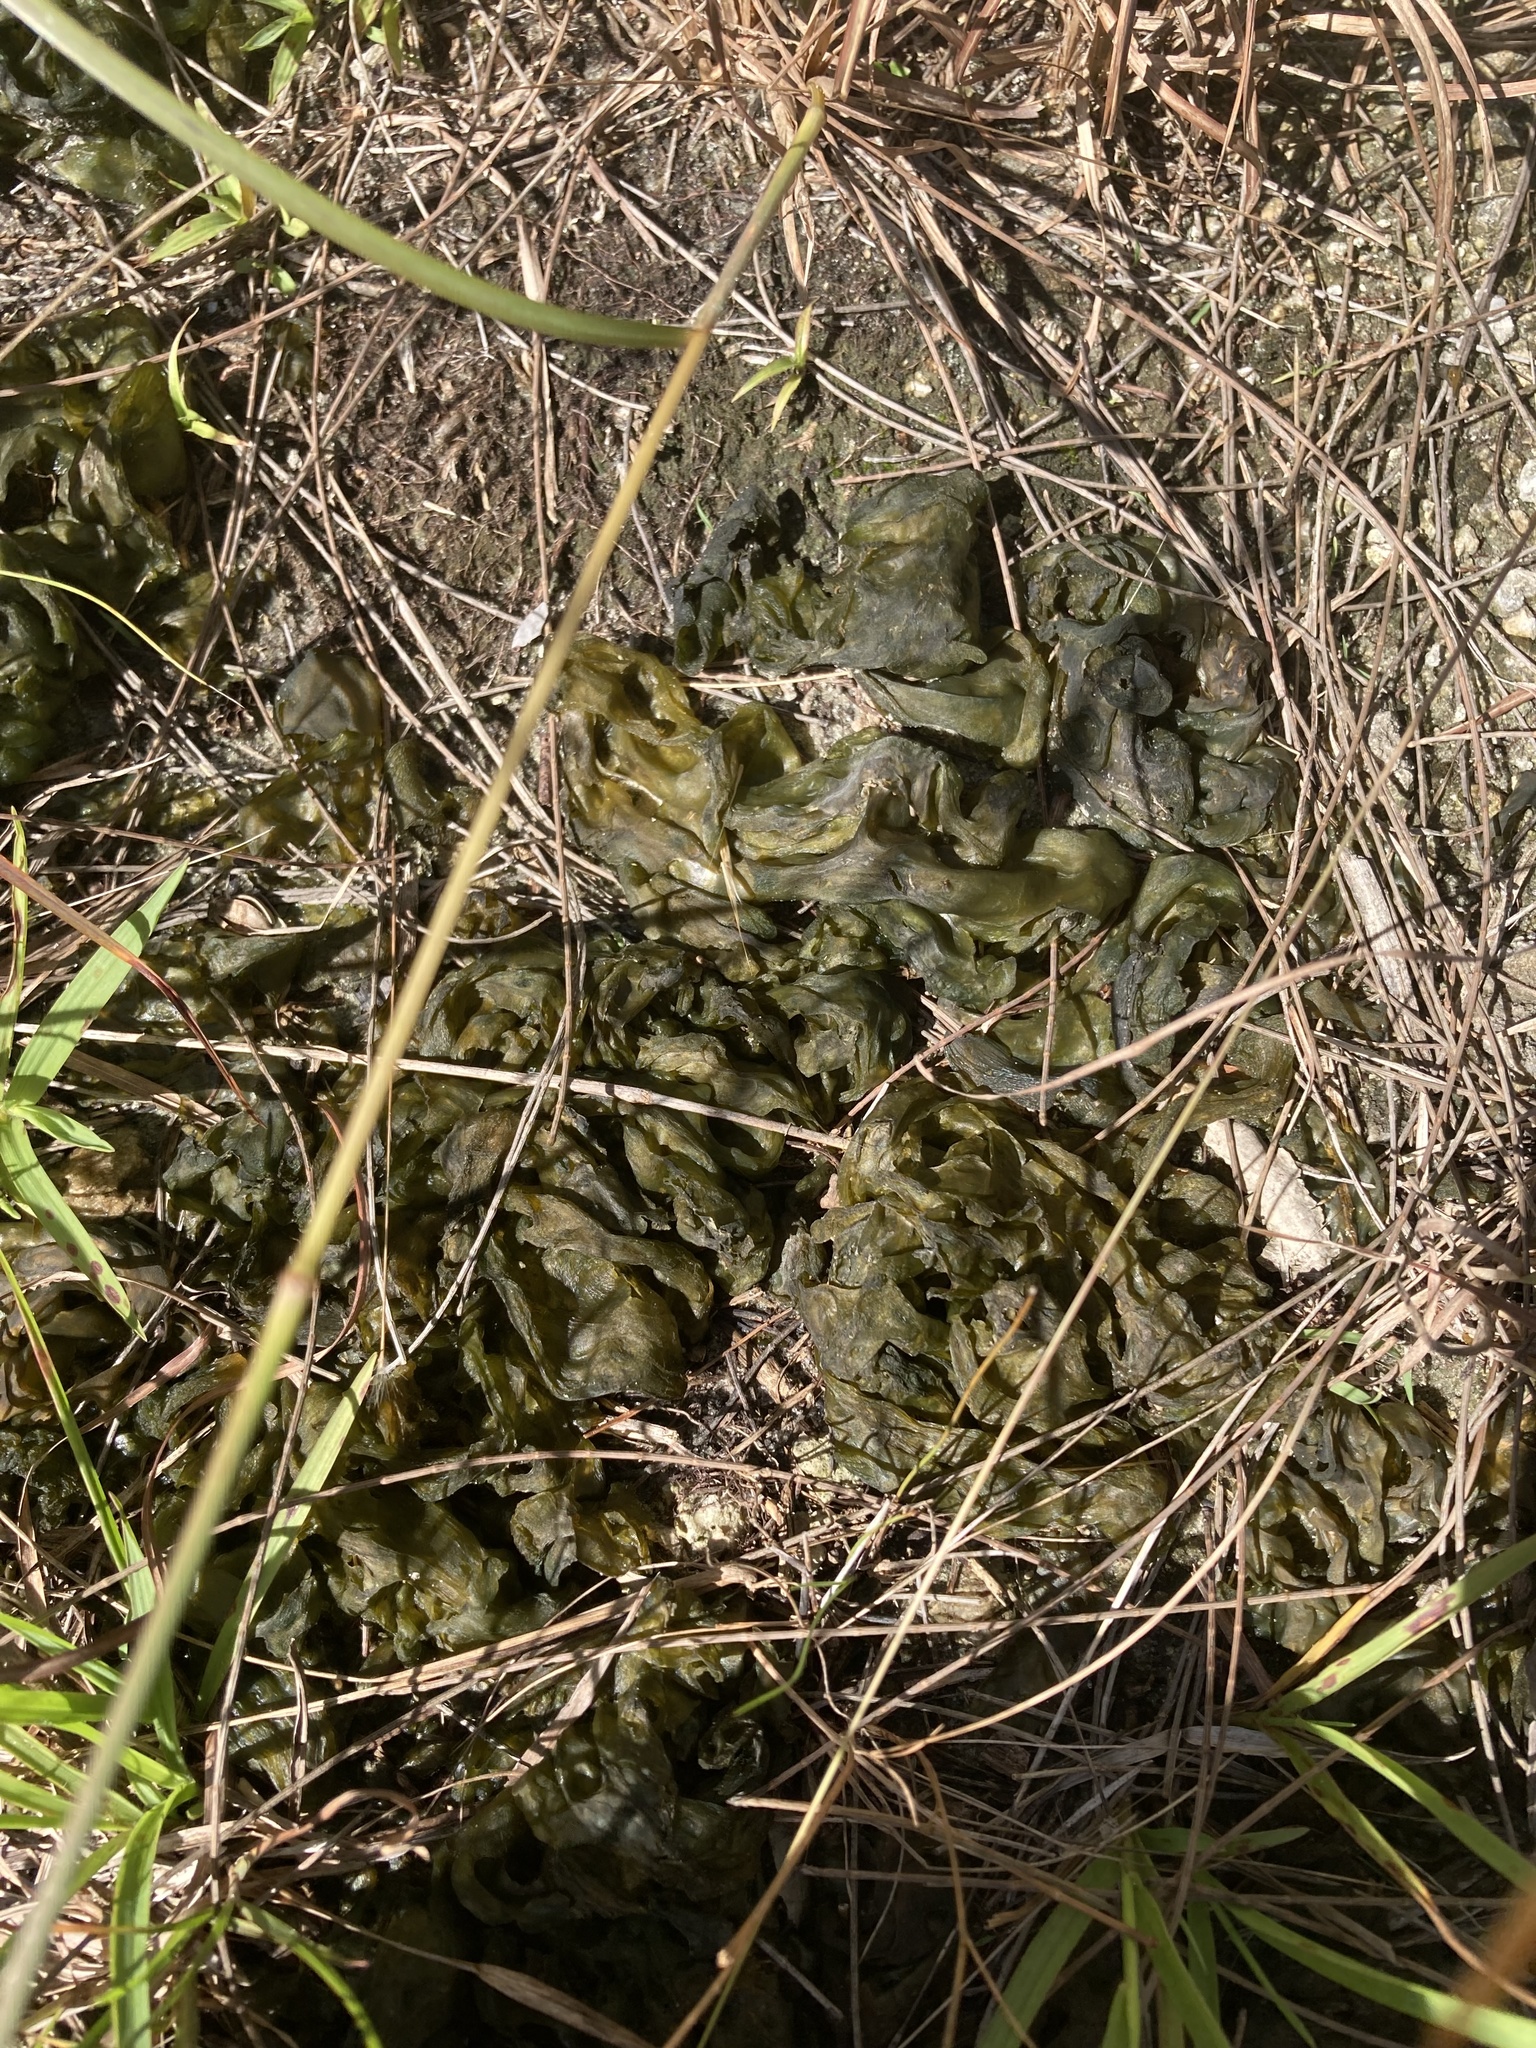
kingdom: Bacteria
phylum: Cyanobacteria
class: Cyanobacteriia
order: Cyanobacteriales
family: Nostocaceae
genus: Nostoc
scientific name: Nostoc commune
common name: Star jelly
